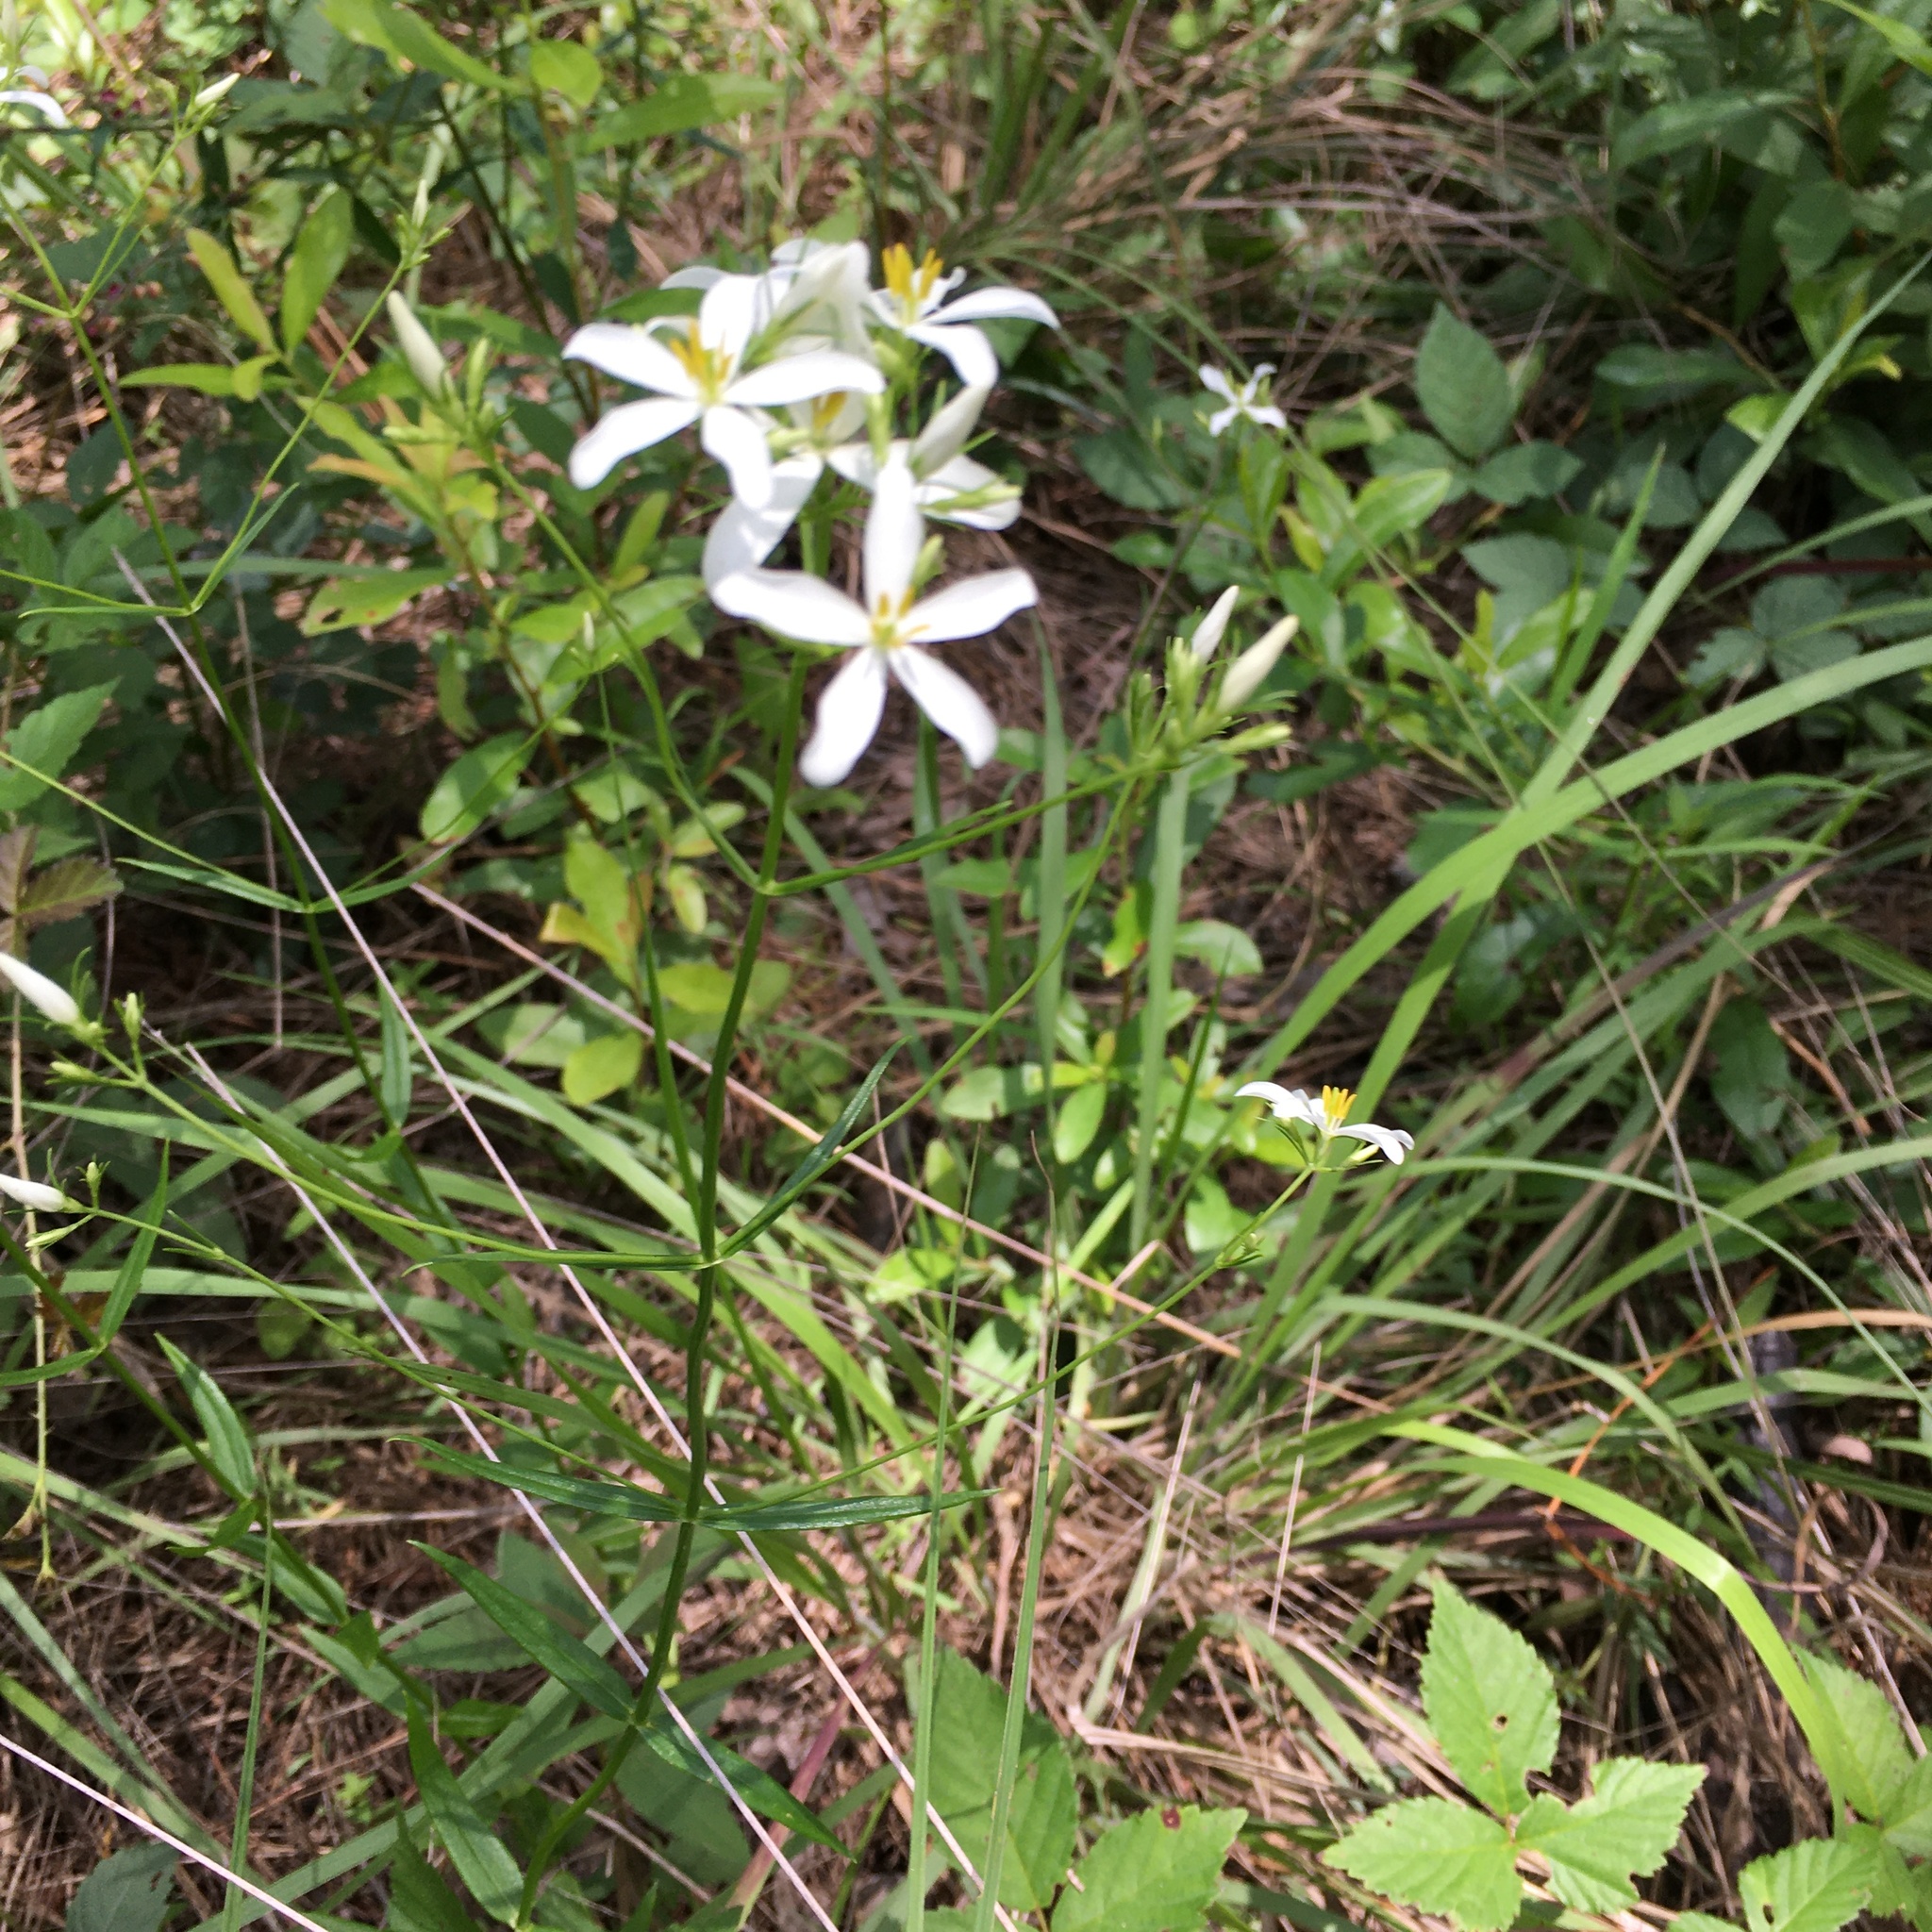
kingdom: Plantae
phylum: Tracheophyta
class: Magnoliopsida
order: Gentianales
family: Gentianaceae
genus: Sabatia
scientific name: Sabatia difformis
